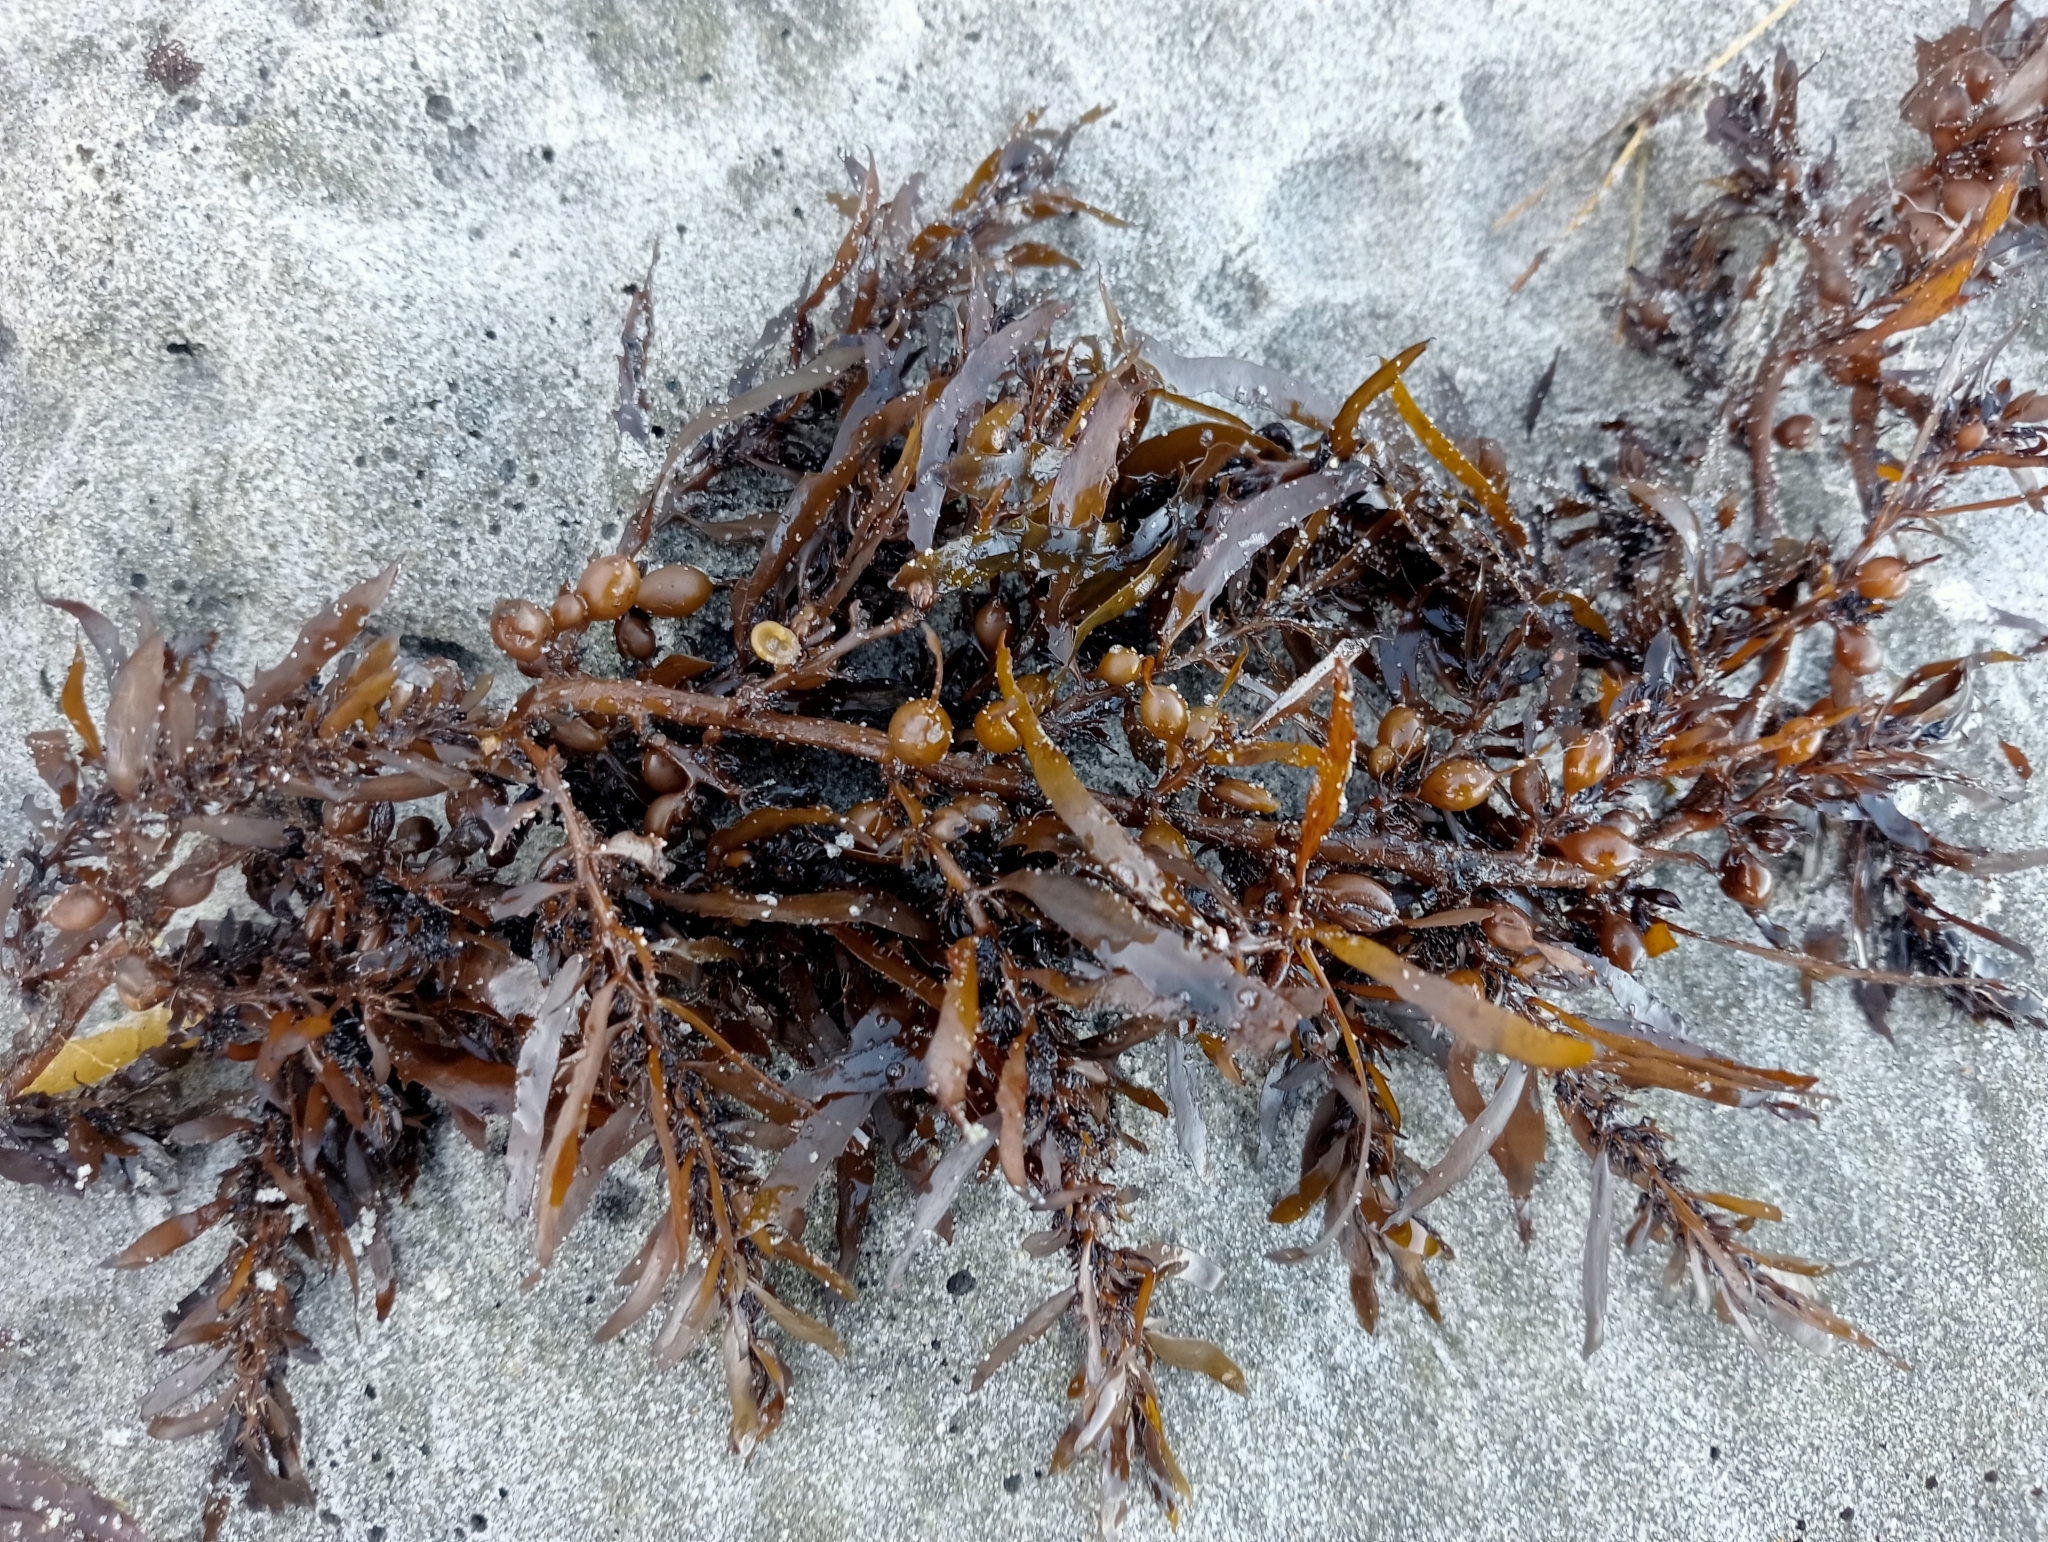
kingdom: Chromista
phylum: Ochrophyta
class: Phaeophyceae
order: Fucales
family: Sargassaceae
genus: Carpophyllum
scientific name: Carpophyllum flexuosum
